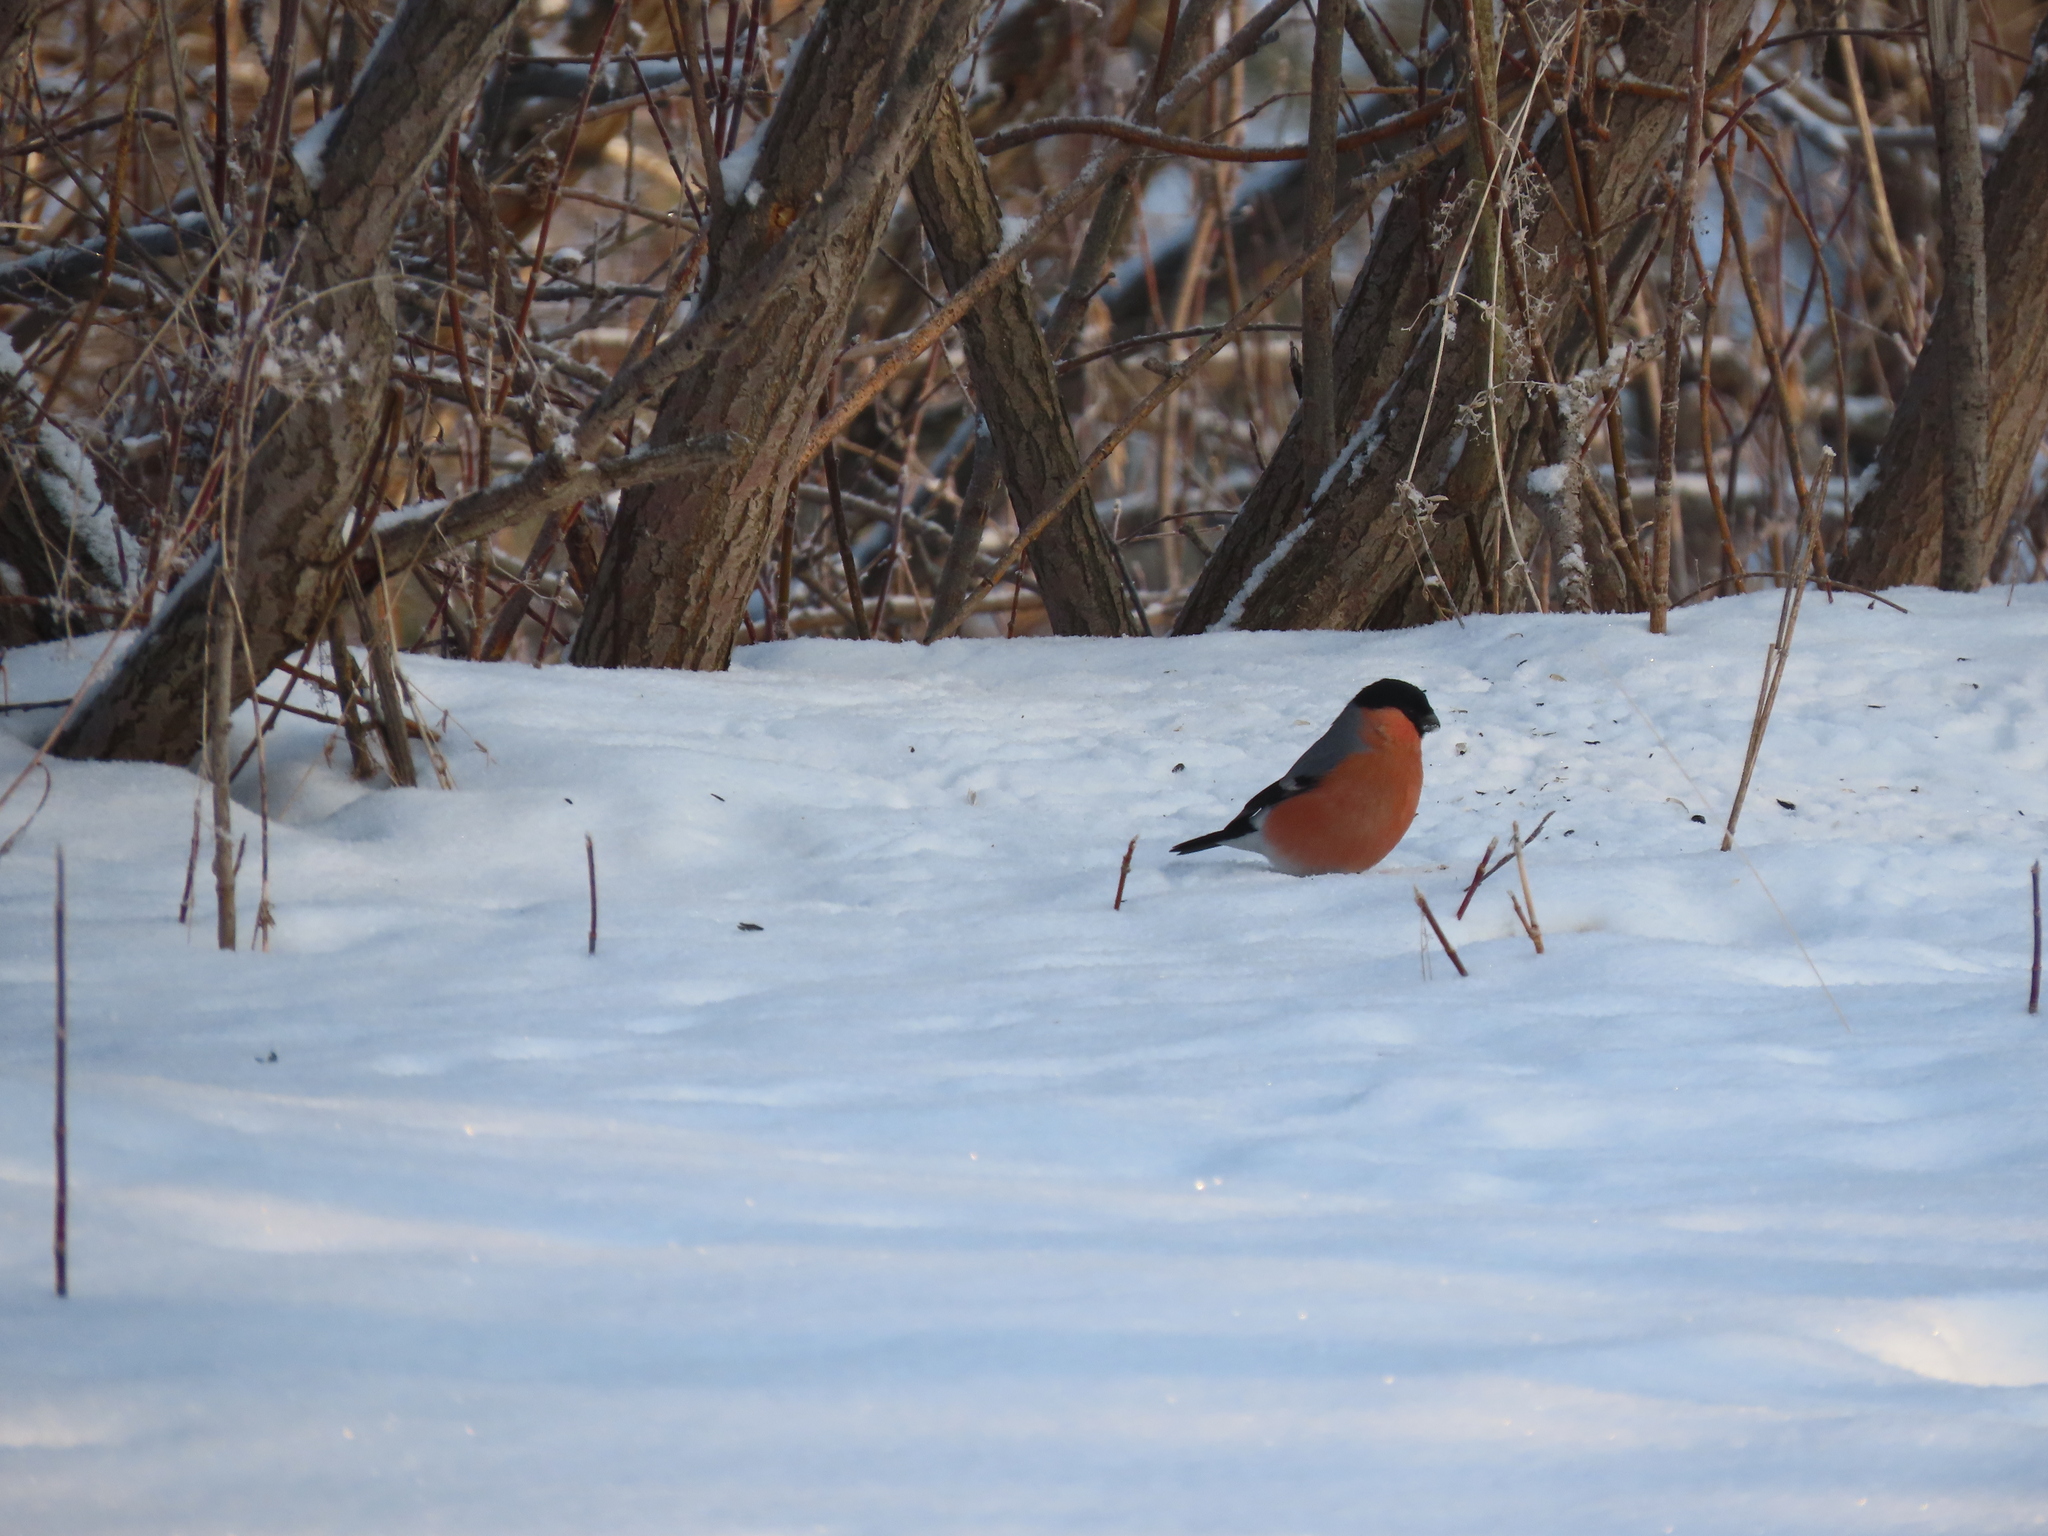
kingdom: Animalia
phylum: Chordata
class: Aves
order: Passeriformes
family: Fringillidae
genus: Pyrrhula
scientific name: Pyrrhula pyrrhula
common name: Eurasian bullfinch
